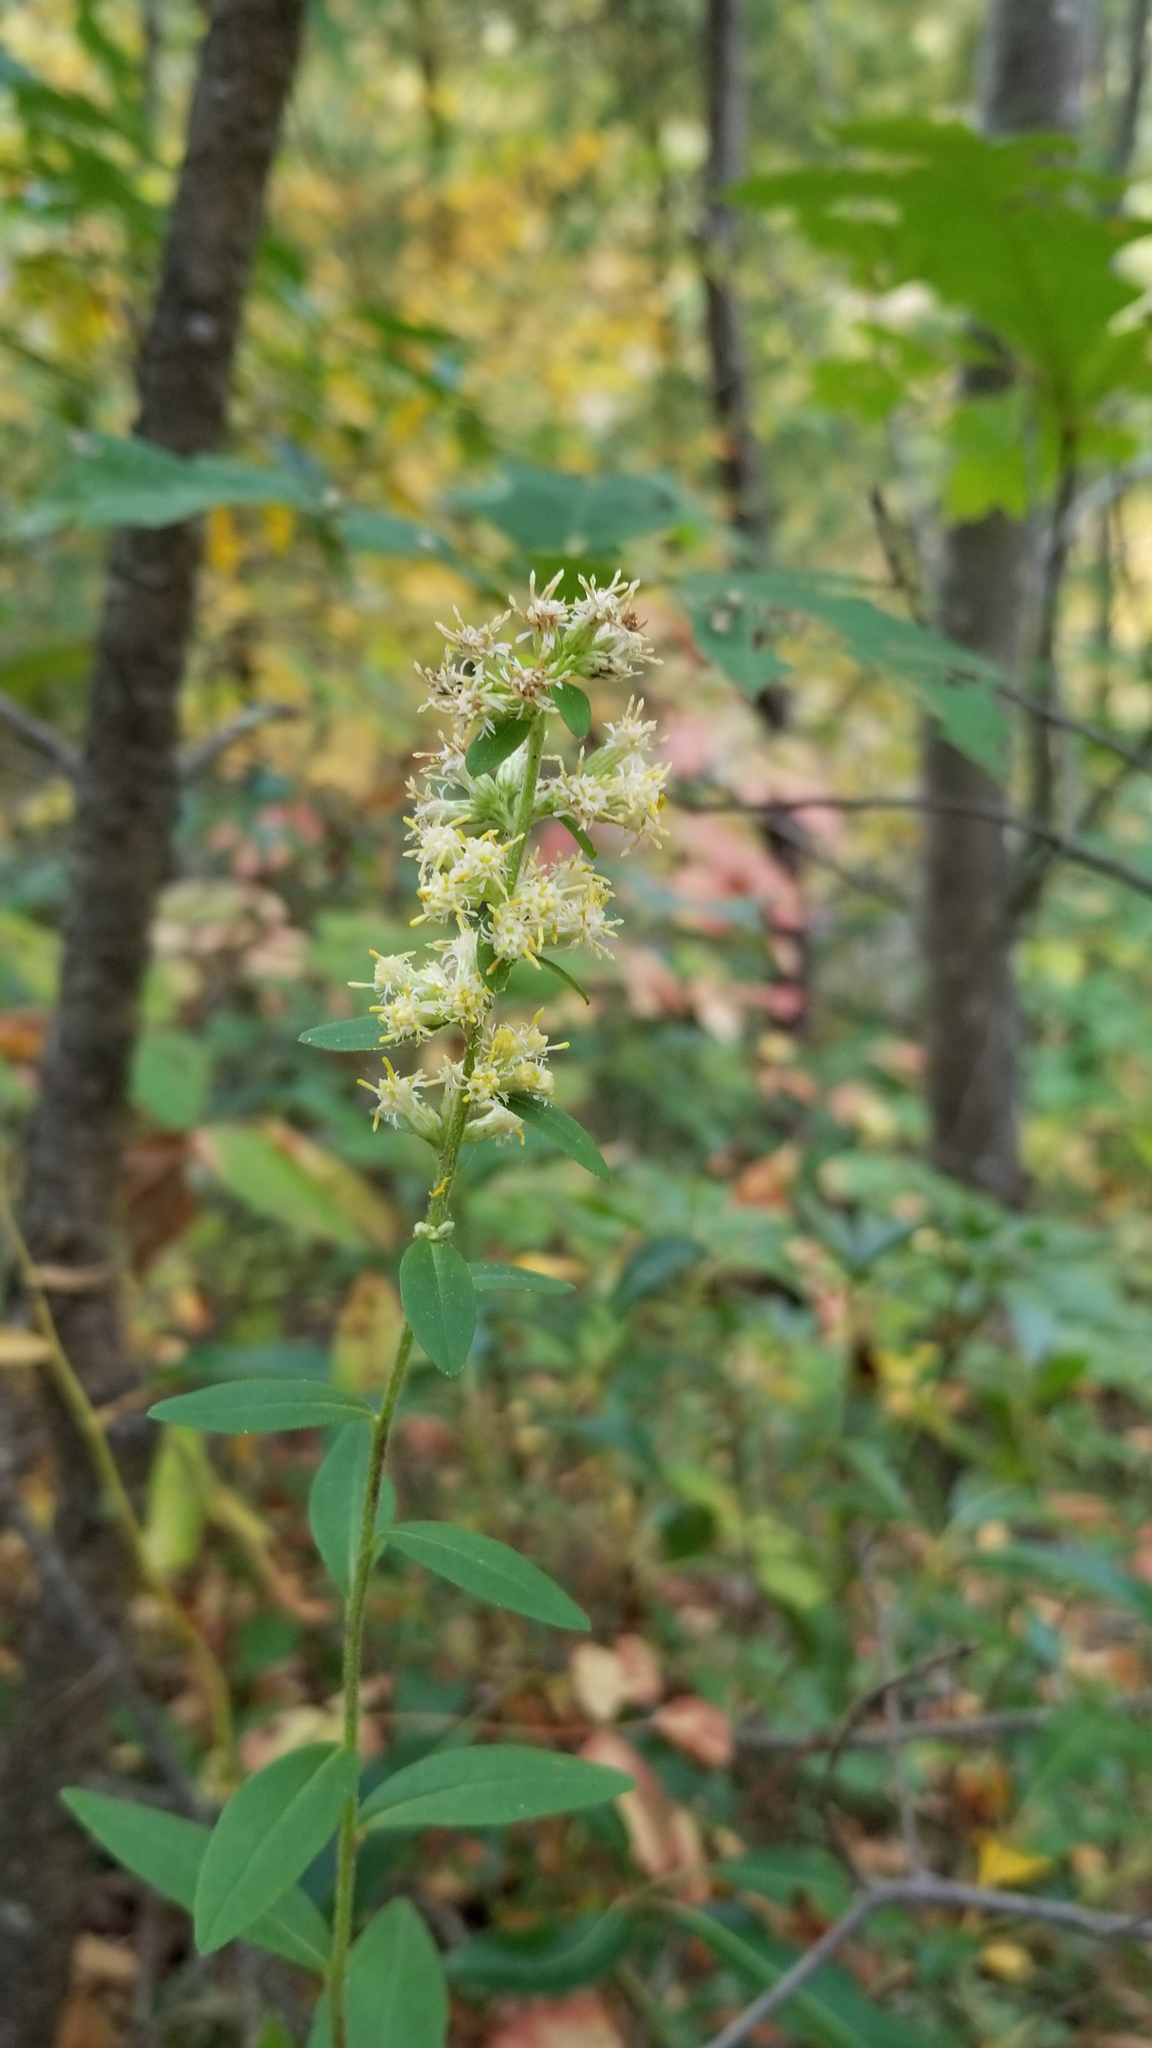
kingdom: Plantae
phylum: Tracheophyta
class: Magnoliopsida
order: Asterales
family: Asteraceae
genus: Solidago
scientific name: Solidago bicolor
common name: Silverrod
